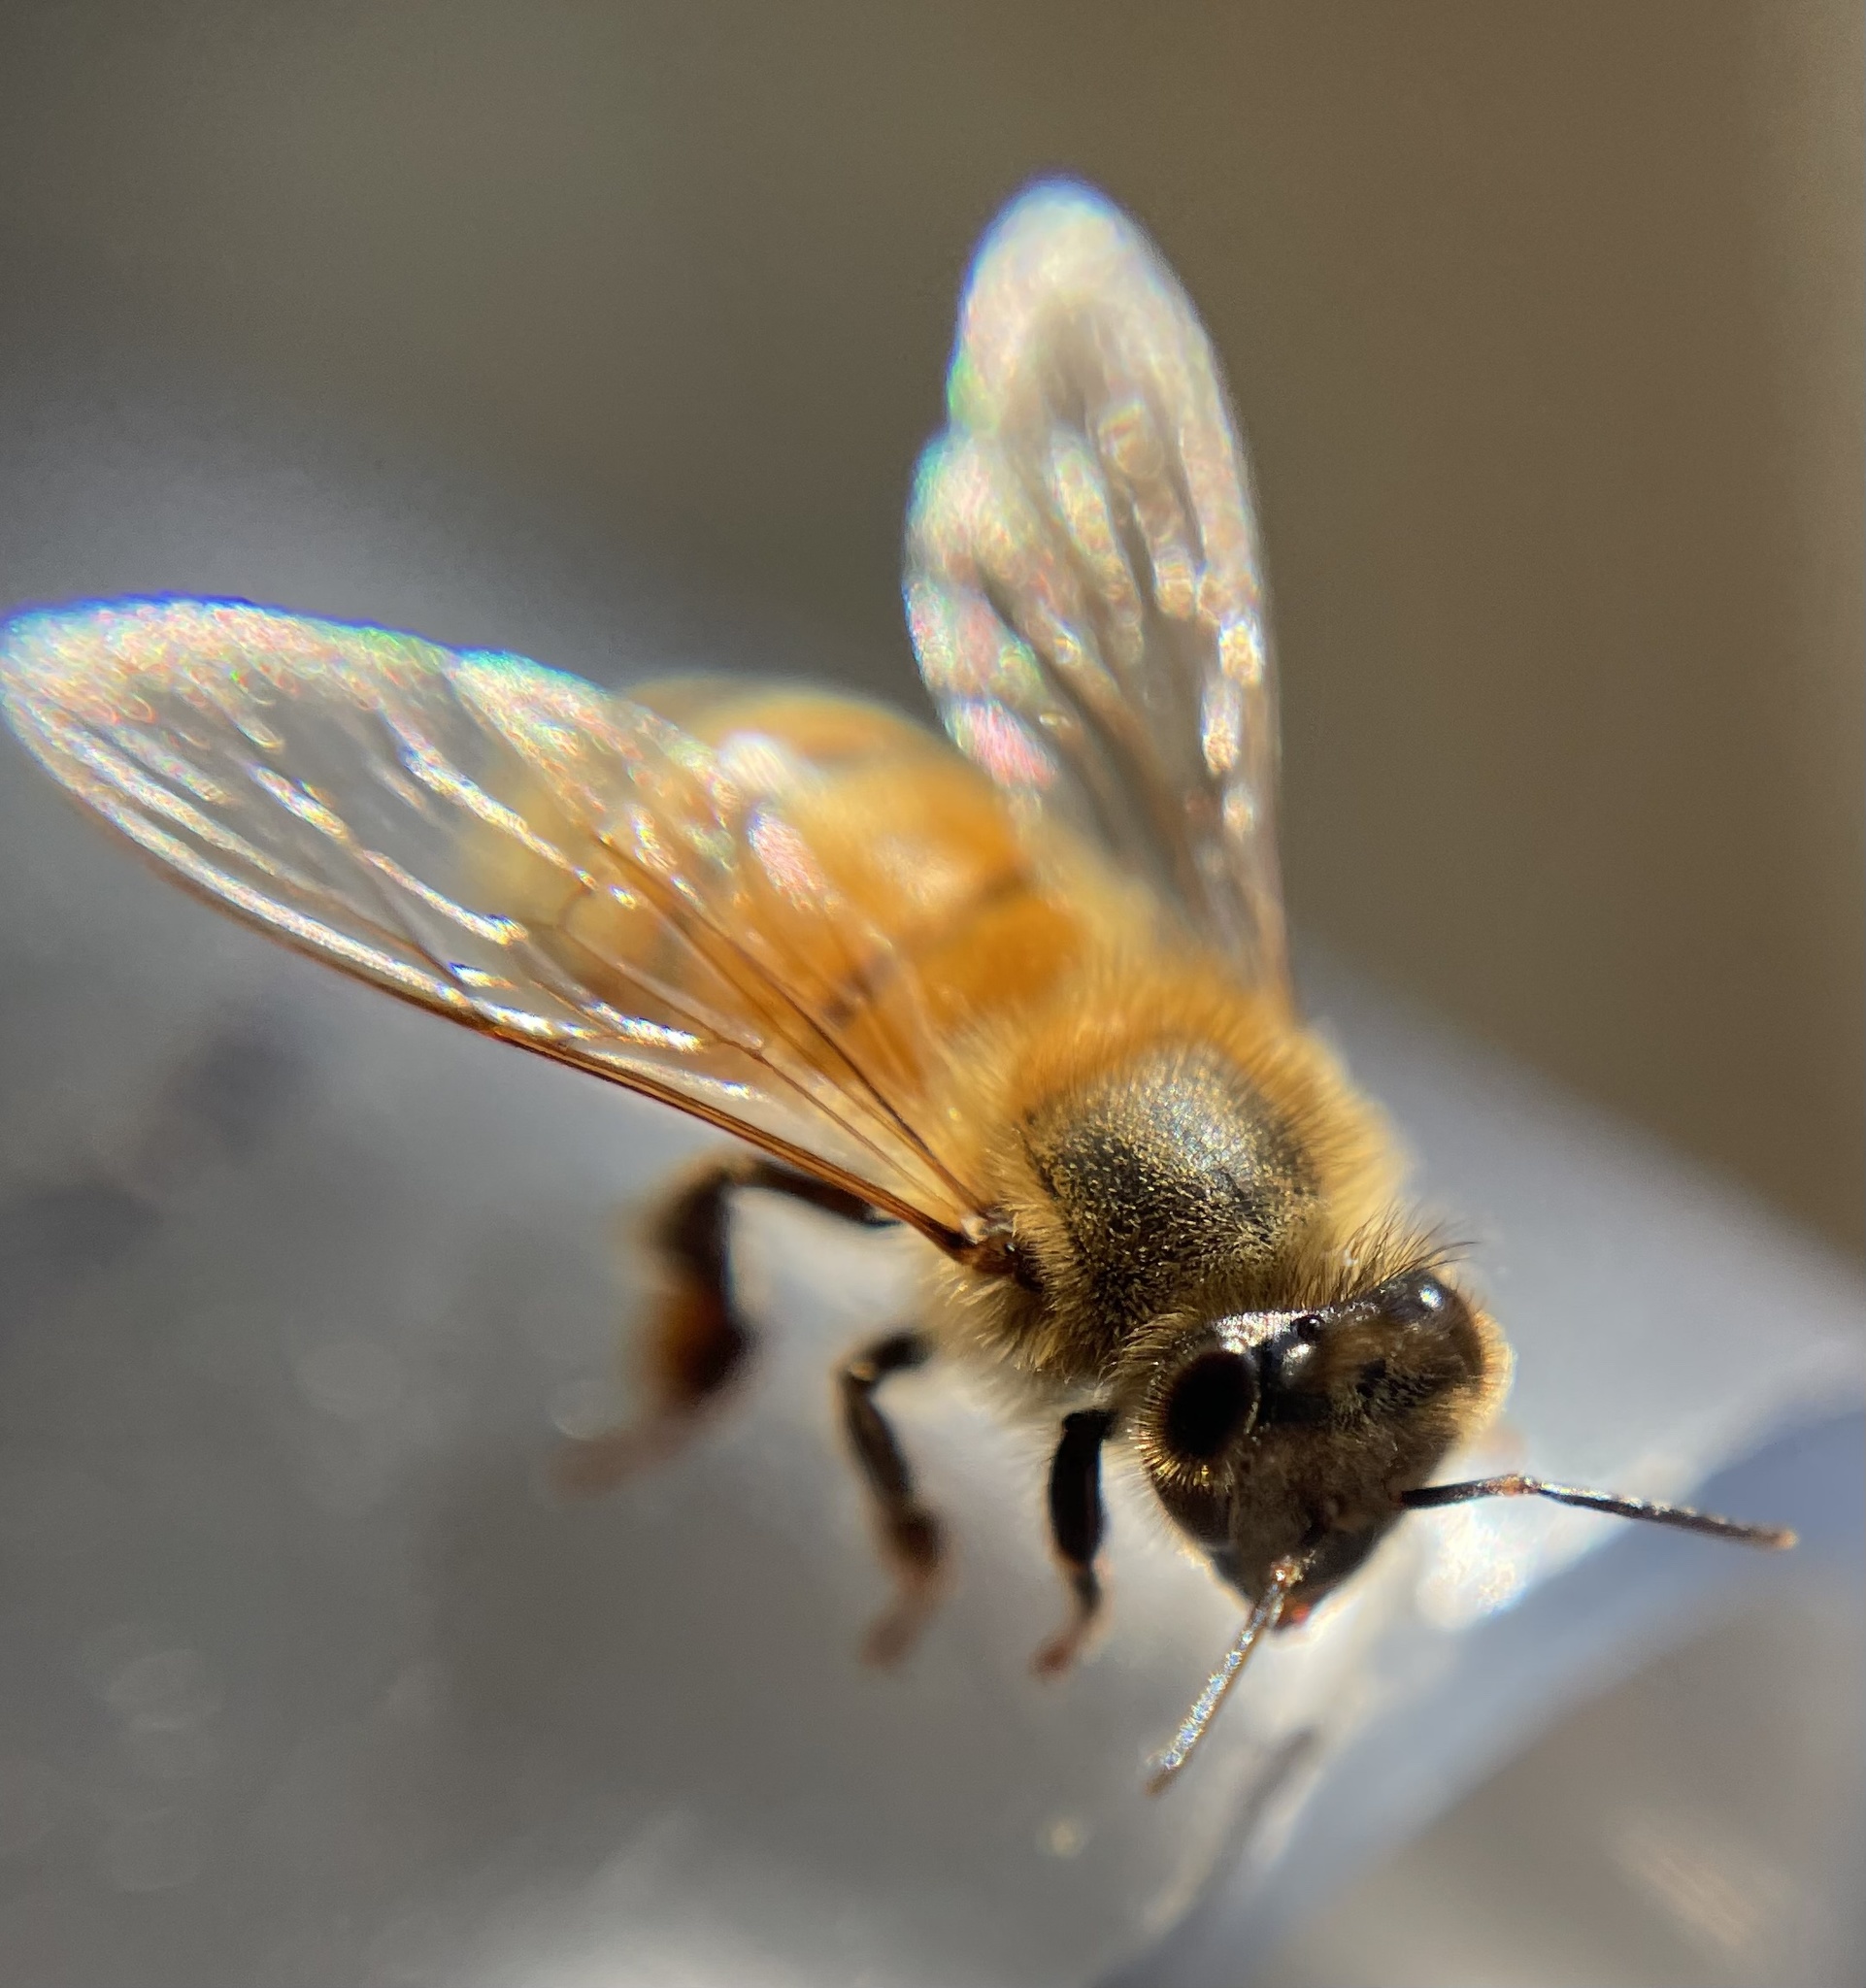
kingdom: Animalia
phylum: Arthropoda
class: Insecta
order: Hymenoptera
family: Apidae
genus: Apis
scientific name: Apis mellifera
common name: Honey bee
